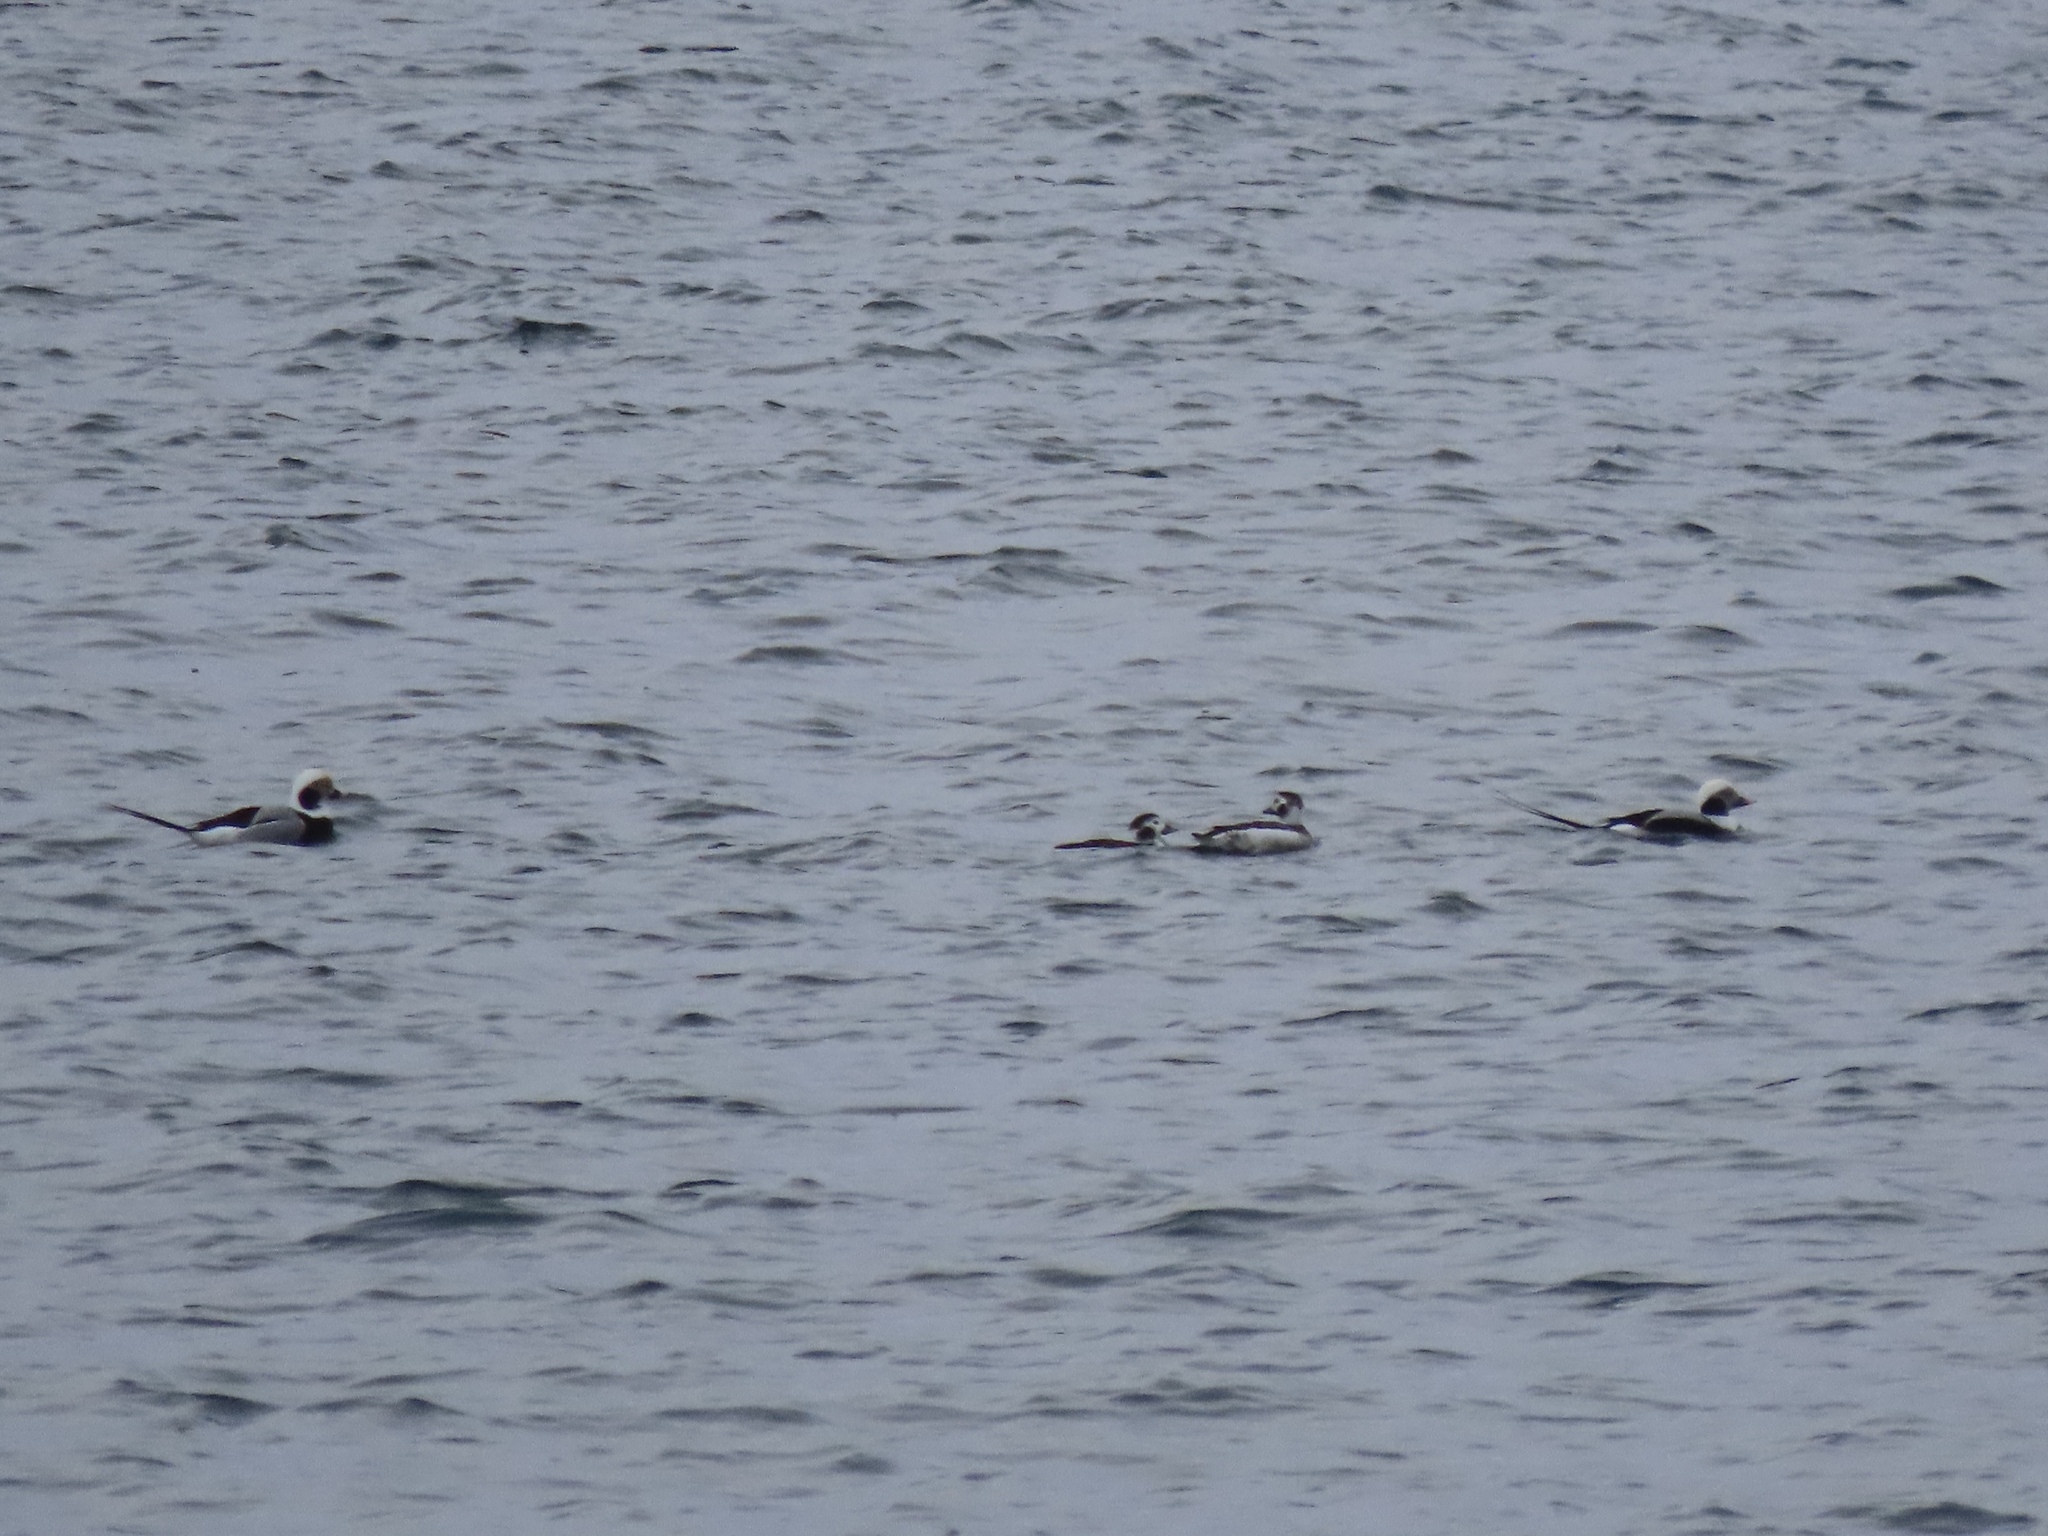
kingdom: Animalia
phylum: Chordata
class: Aves
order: Anseriformes
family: Anatidae
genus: Clangula
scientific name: Clangula hyemalis
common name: Long-tailed duck
